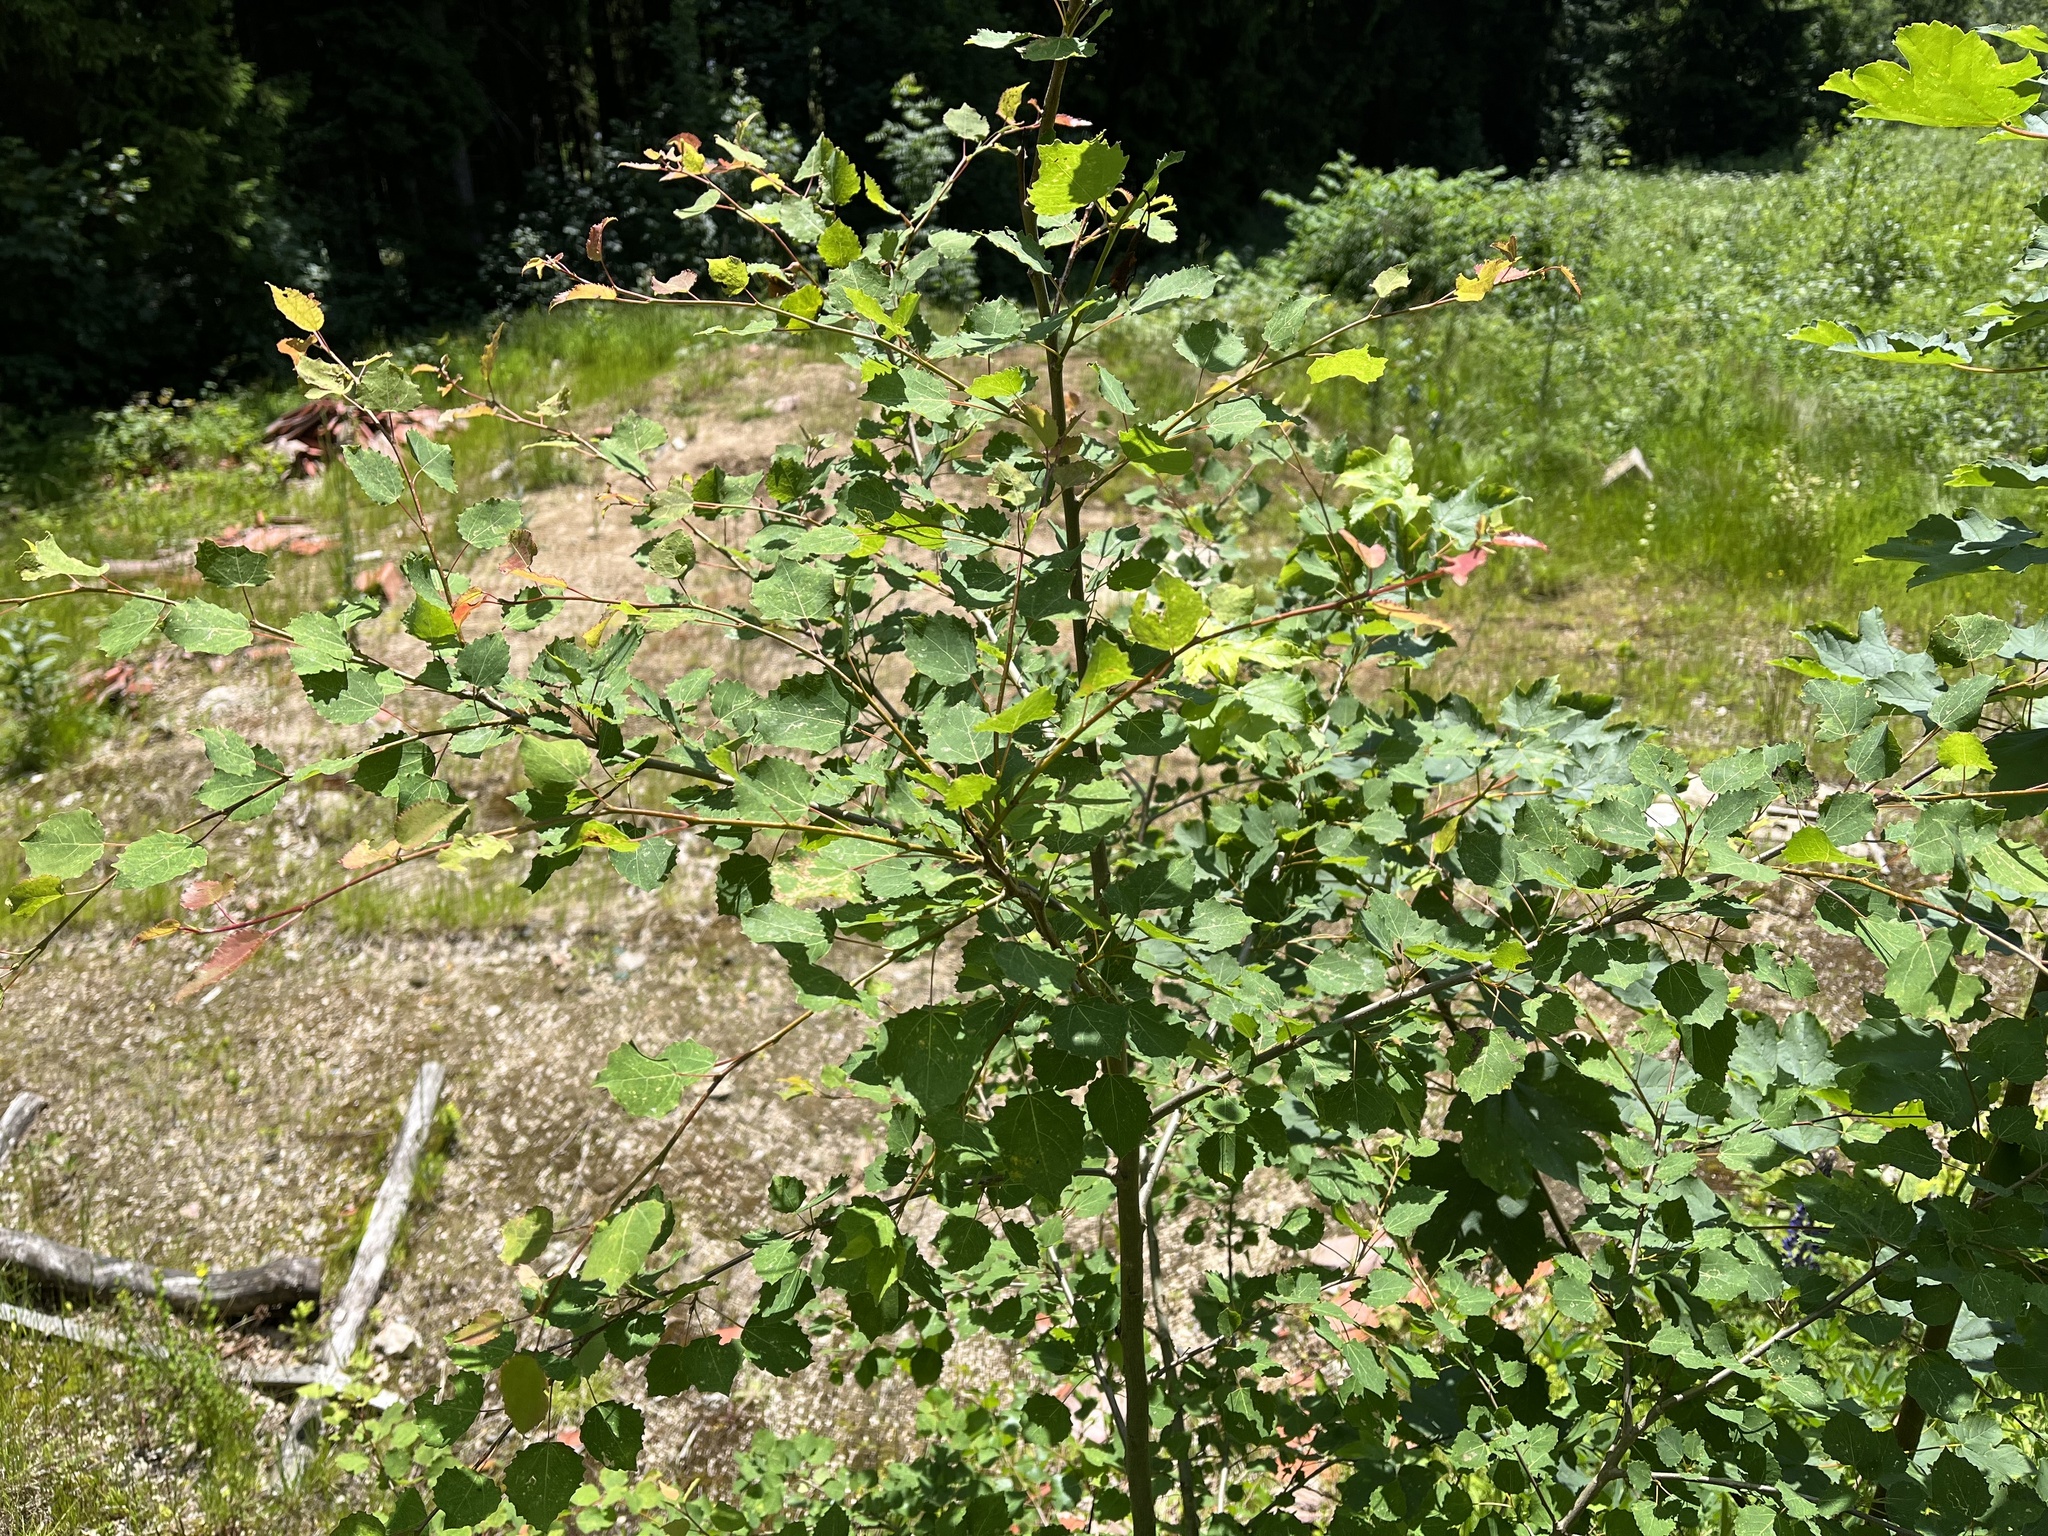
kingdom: Plantae
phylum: Tracheophyta
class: Magnoliopsida
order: Malpighiales
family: Salicaceae
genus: Populus
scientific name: Populus tremula
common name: European aspen
